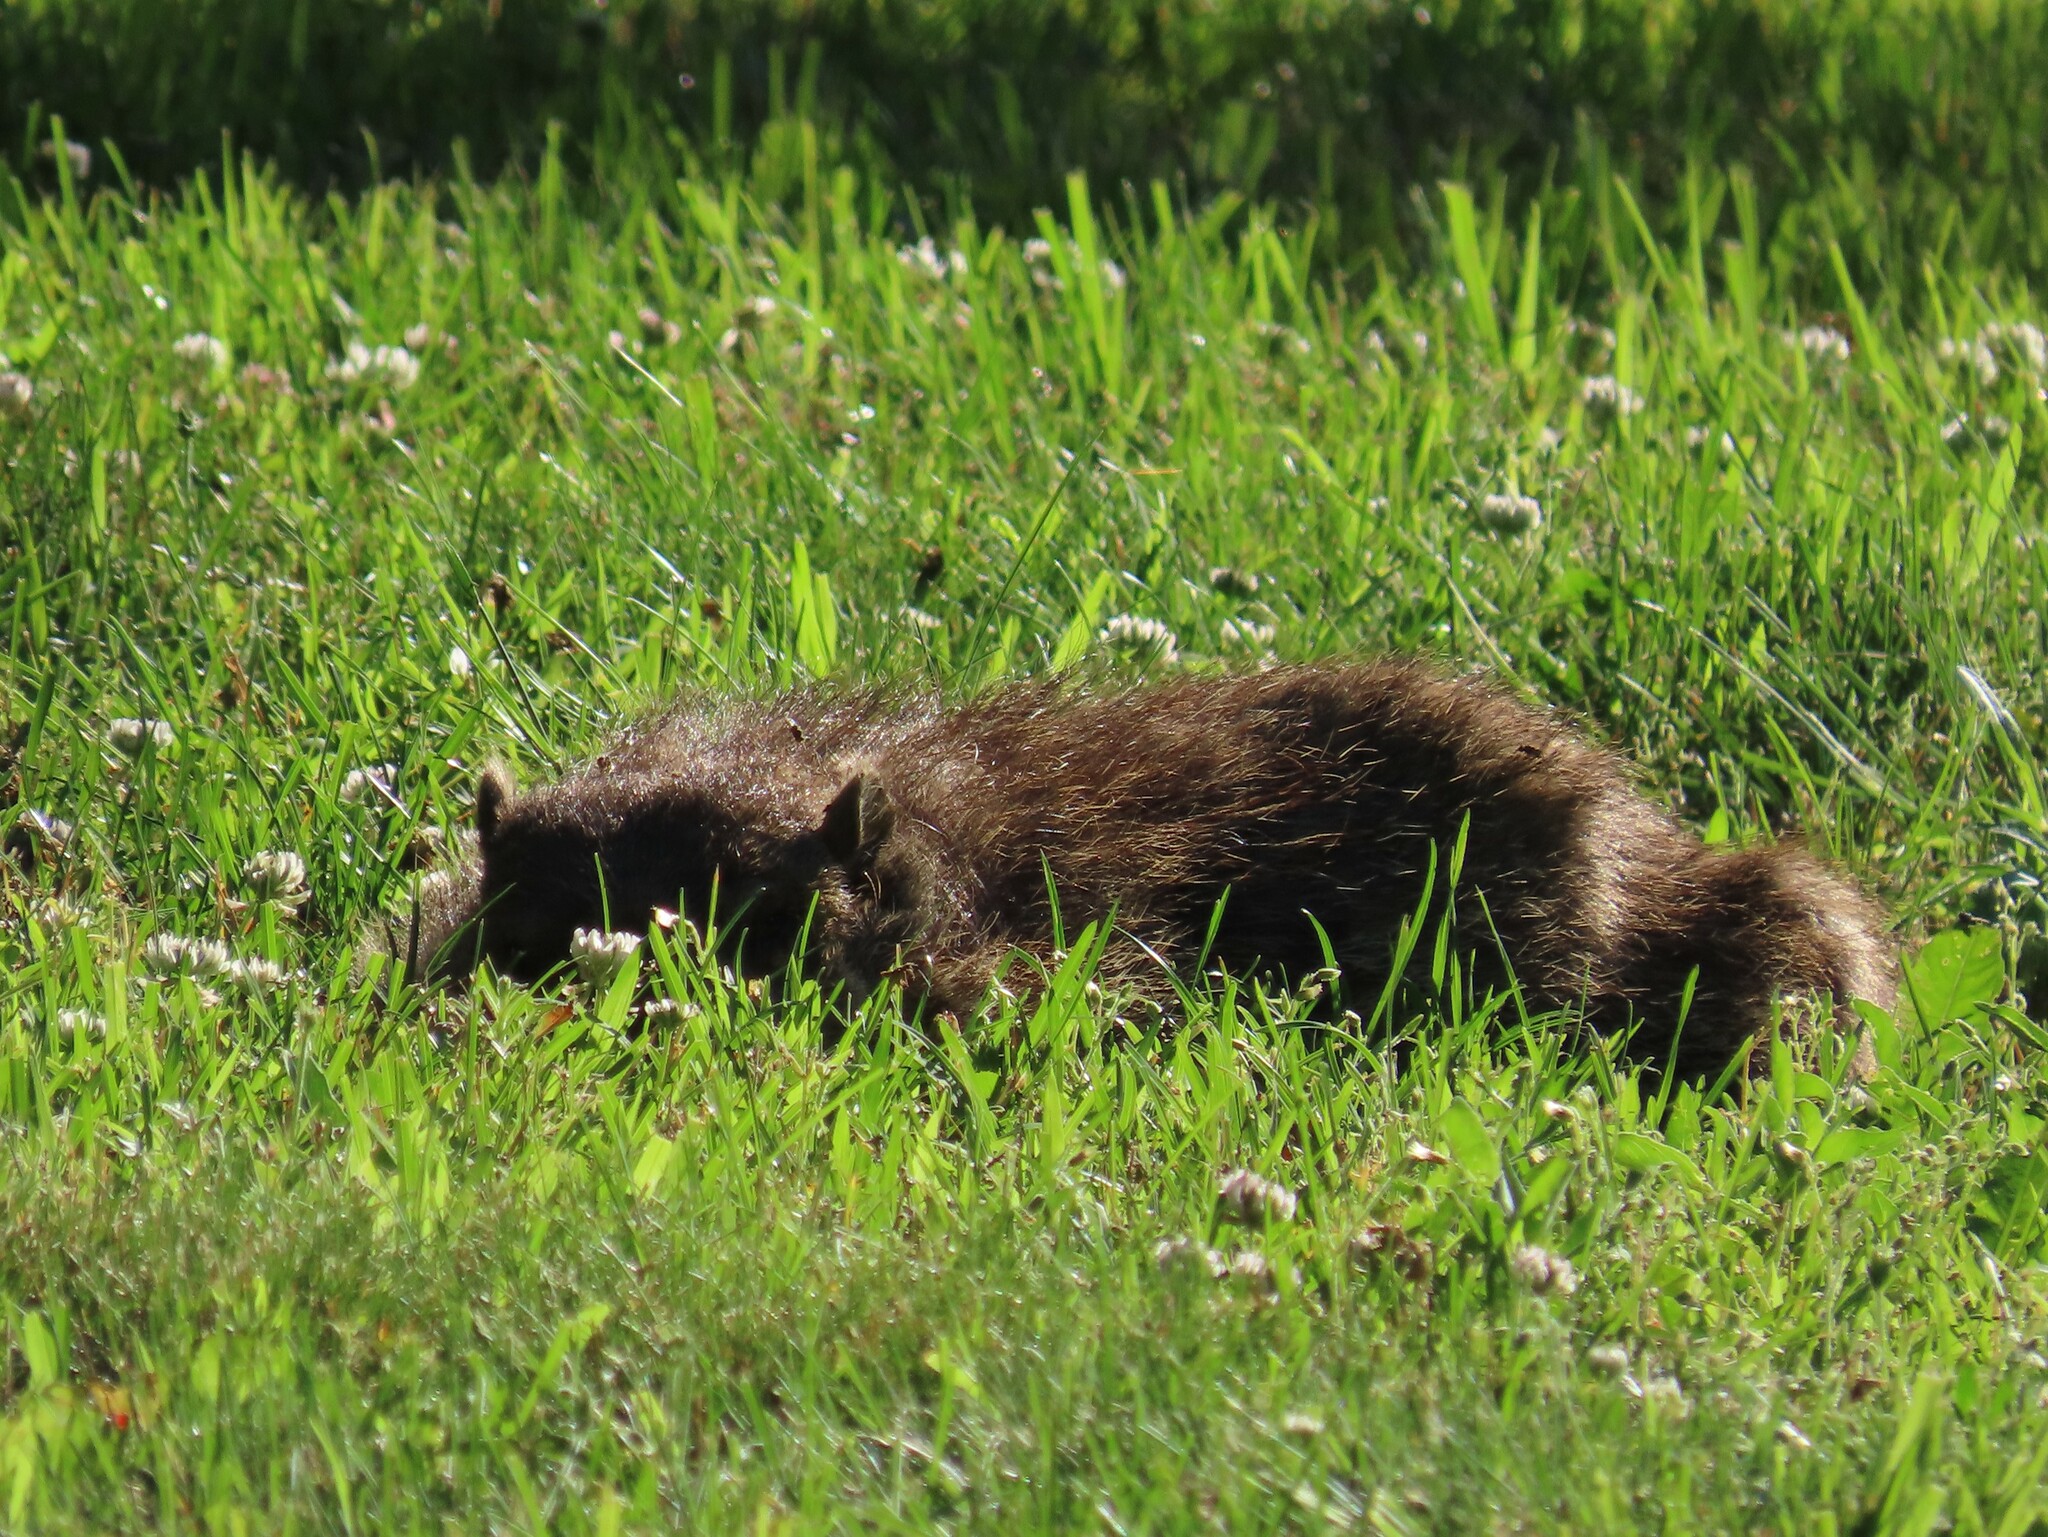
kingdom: Animalia
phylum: Chordata
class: Mammalia
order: Rodentia
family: Sciuridae
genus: Marmota
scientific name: Marmota monax
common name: Groundhog
